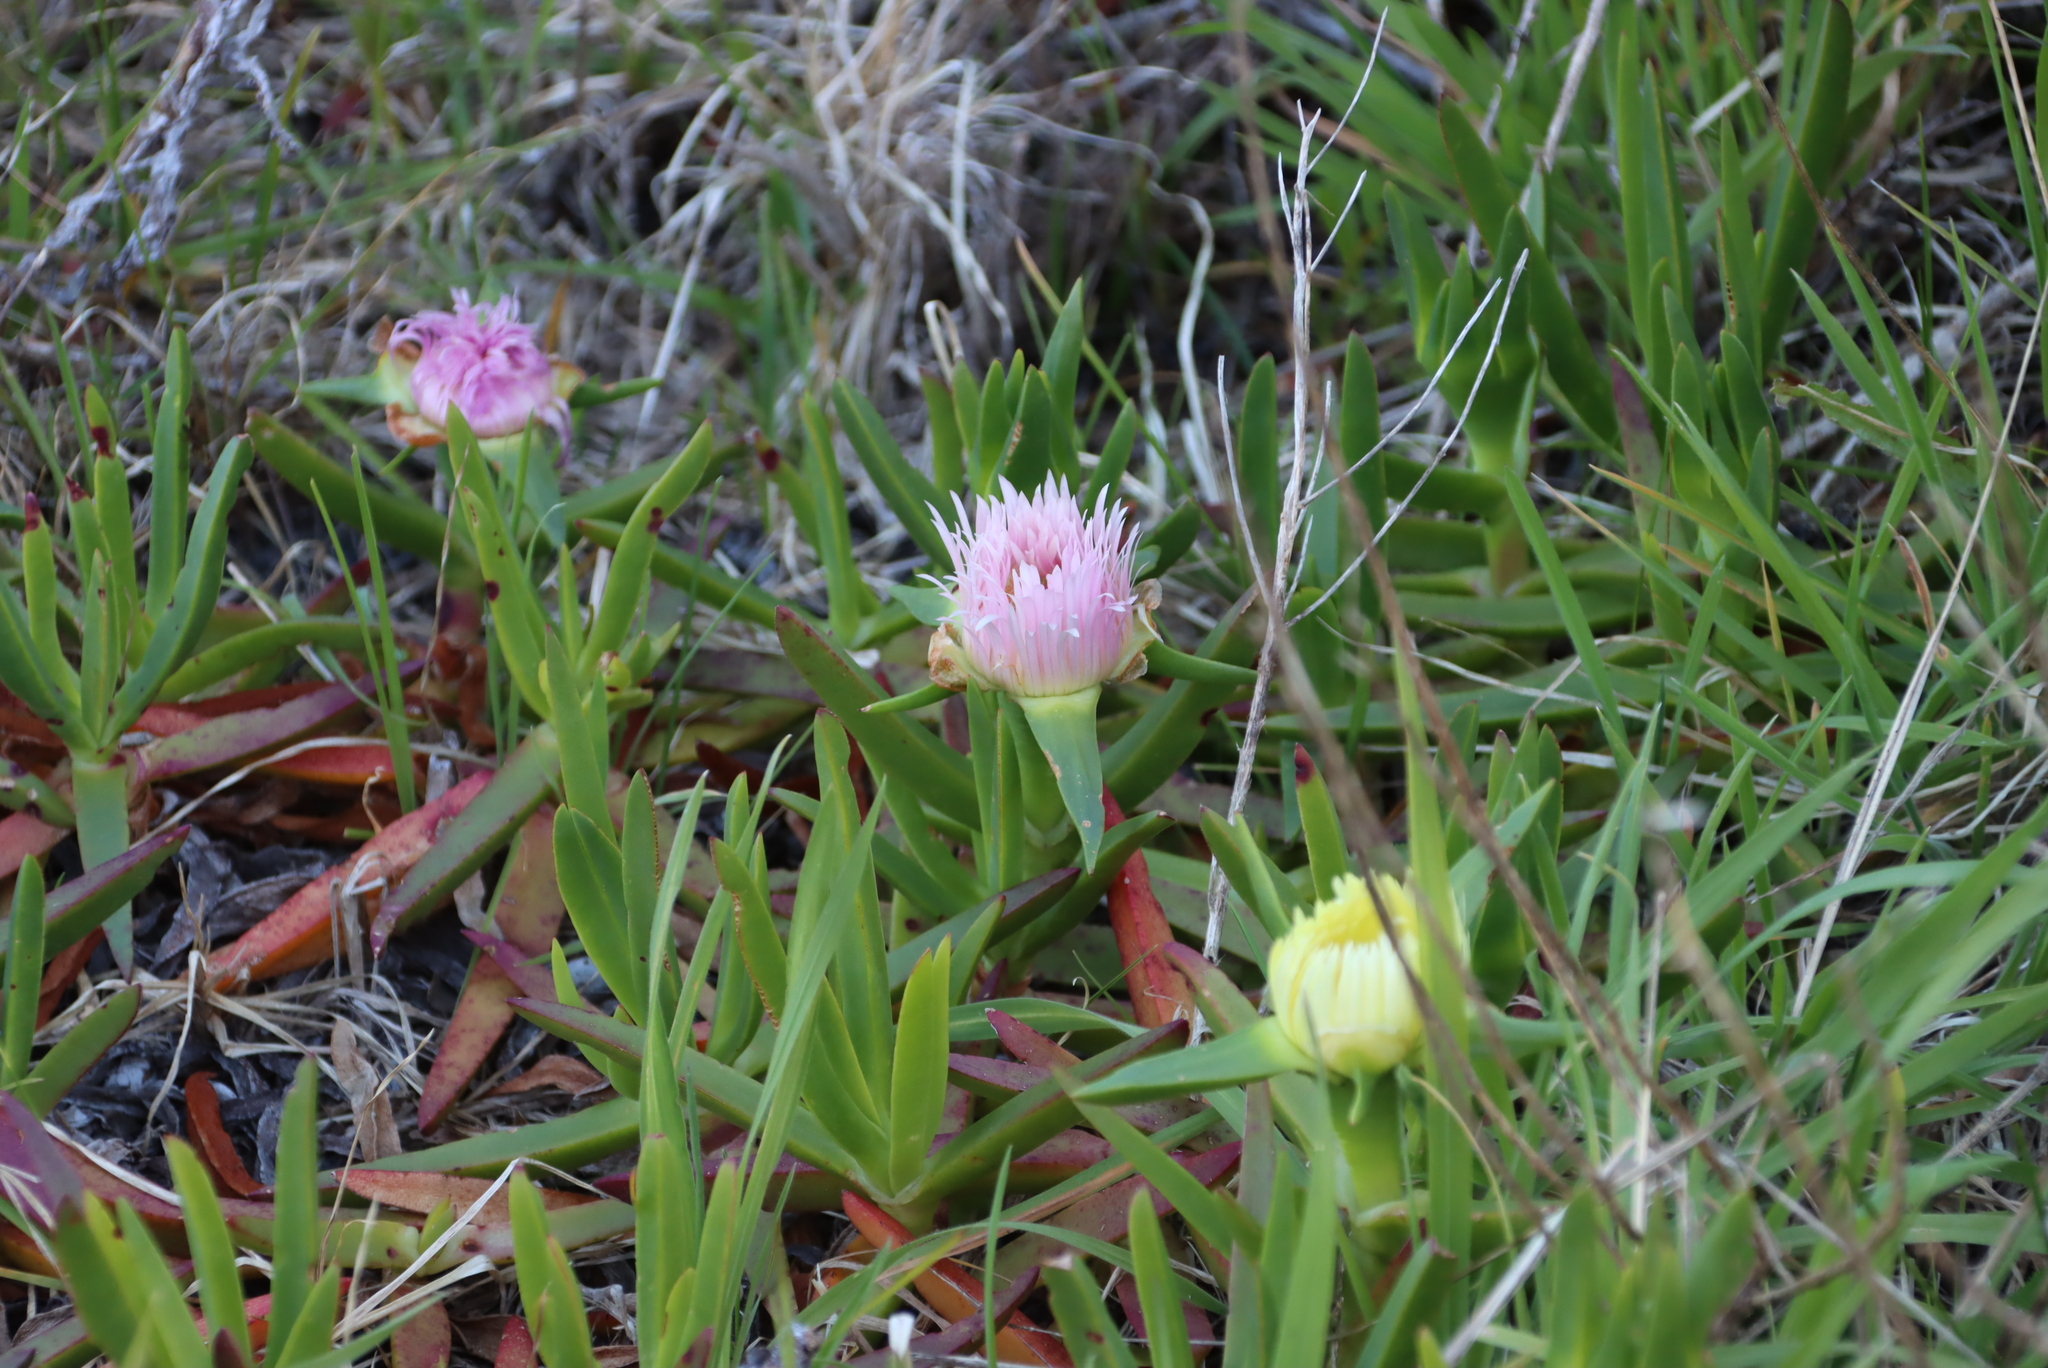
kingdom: Plantae
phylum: Tracheophyta
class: Magnoliopsida
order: Caryophyllales
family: Aizoaceae
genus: Carpobrotus
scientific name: Carpobrotus edulis
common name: Hottentot-fig
